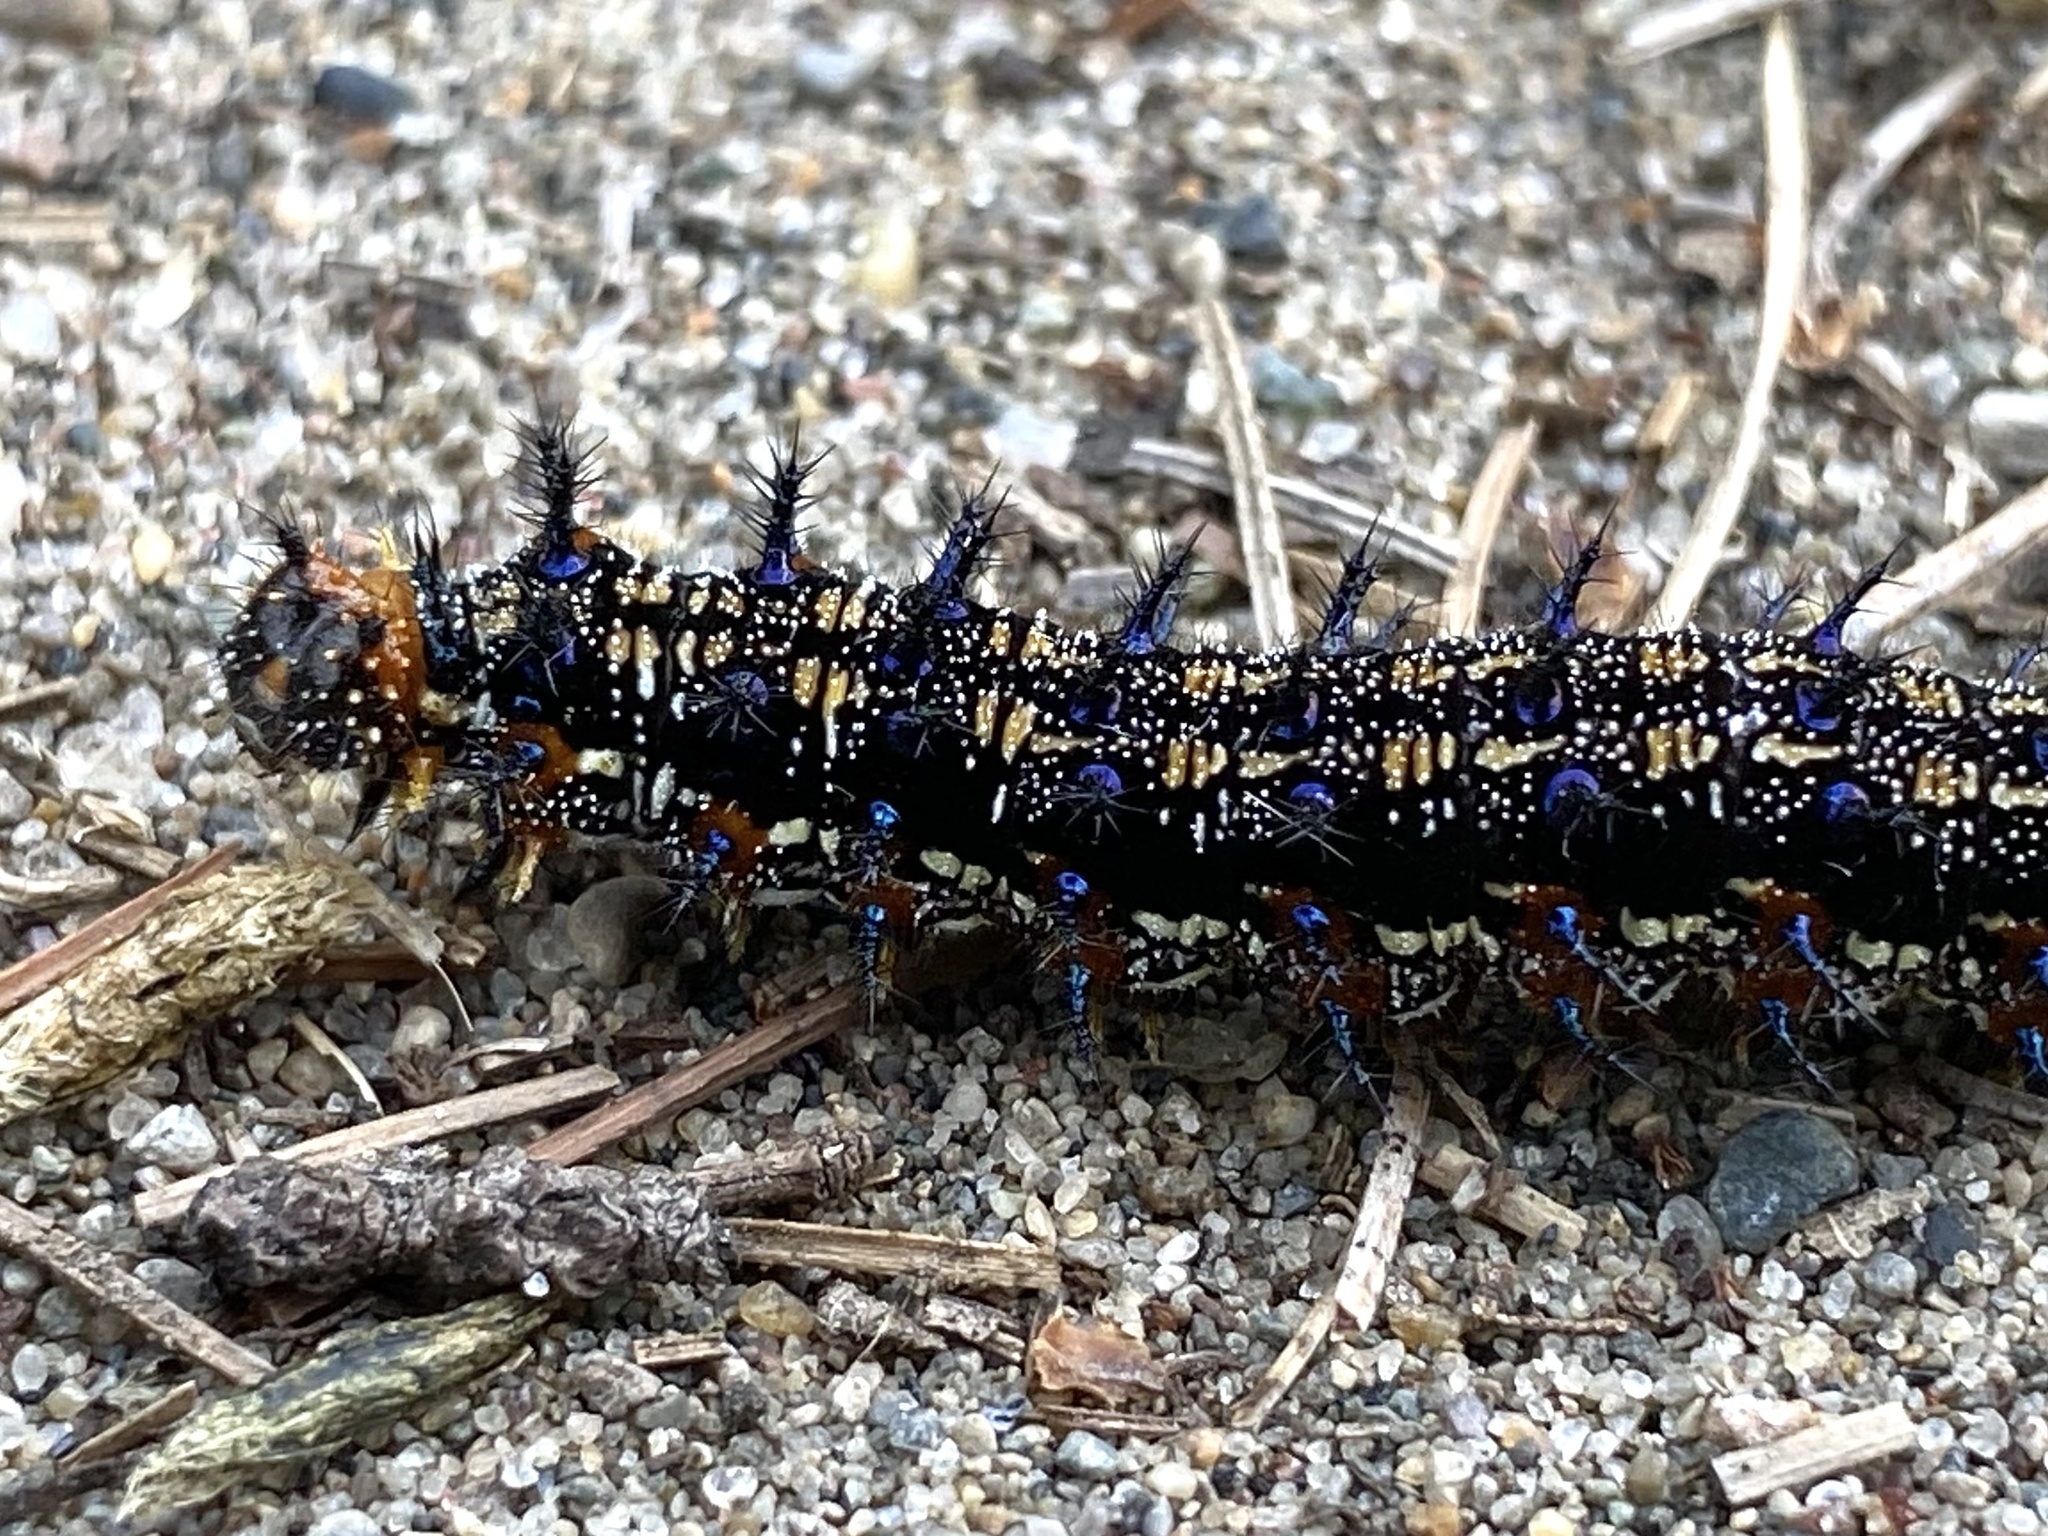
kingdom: Animalia
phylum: Arthropoda
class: Insecta
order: Lepidoptera
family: Nymphalidae
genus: Junonia
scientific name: Junonia coenia
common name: Common buckeye
